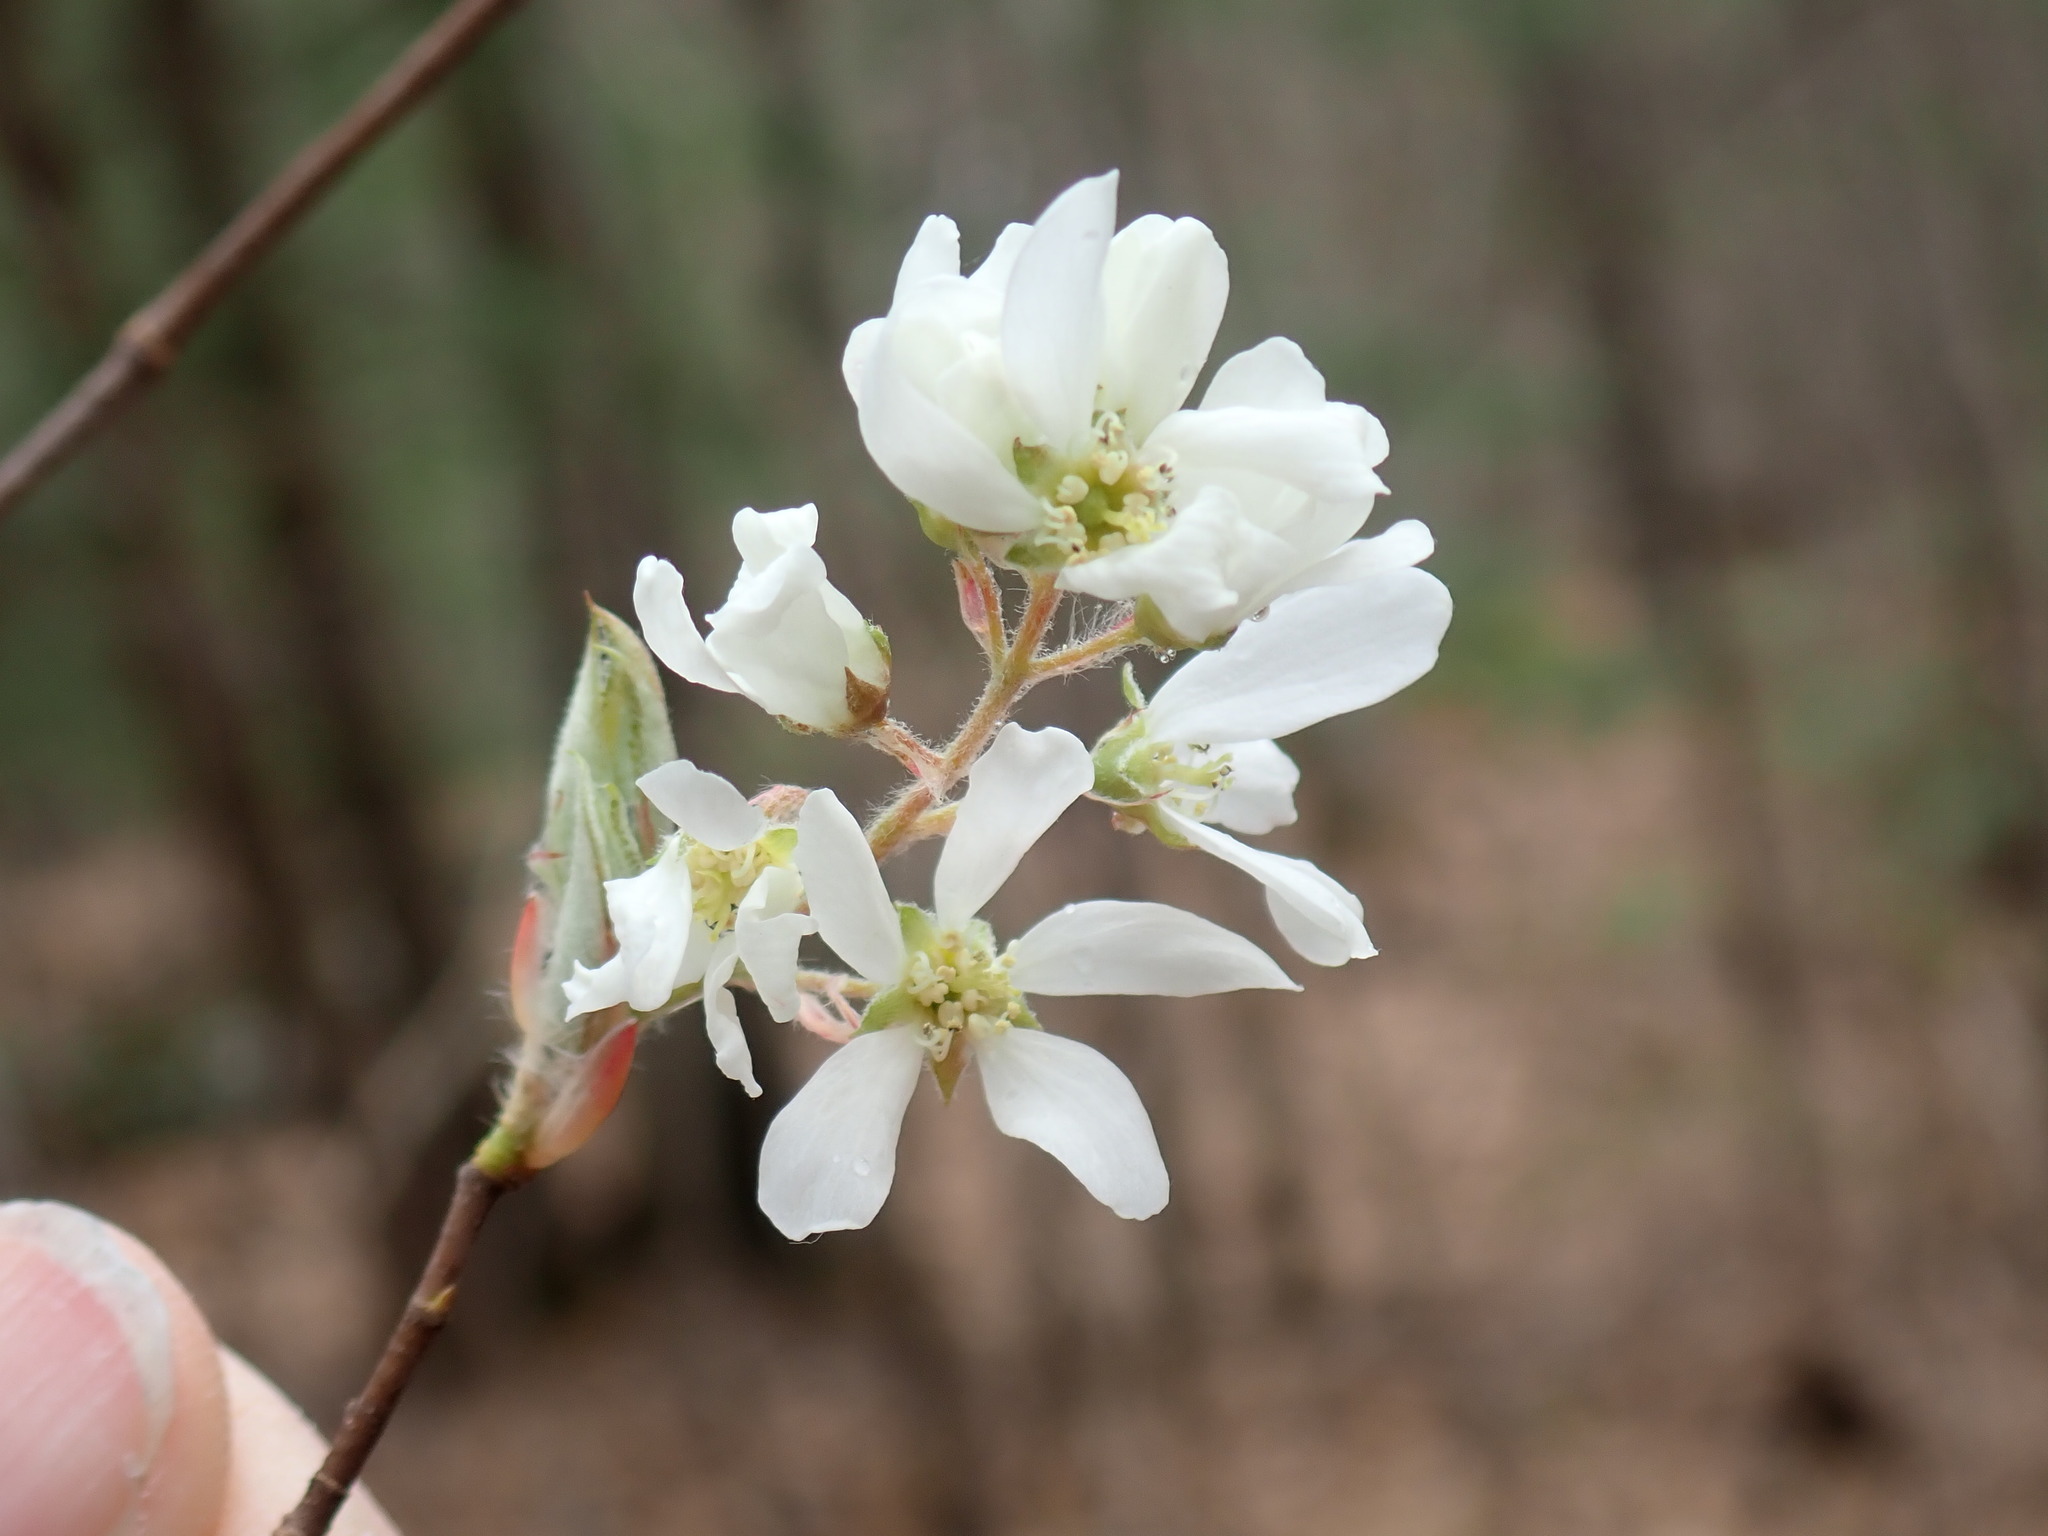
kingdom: Plantae
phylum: Tracheophyta
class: Magnoliopsida
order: Rosales
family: Rosaceae
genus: Amelanchier
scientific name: Amelanchier
